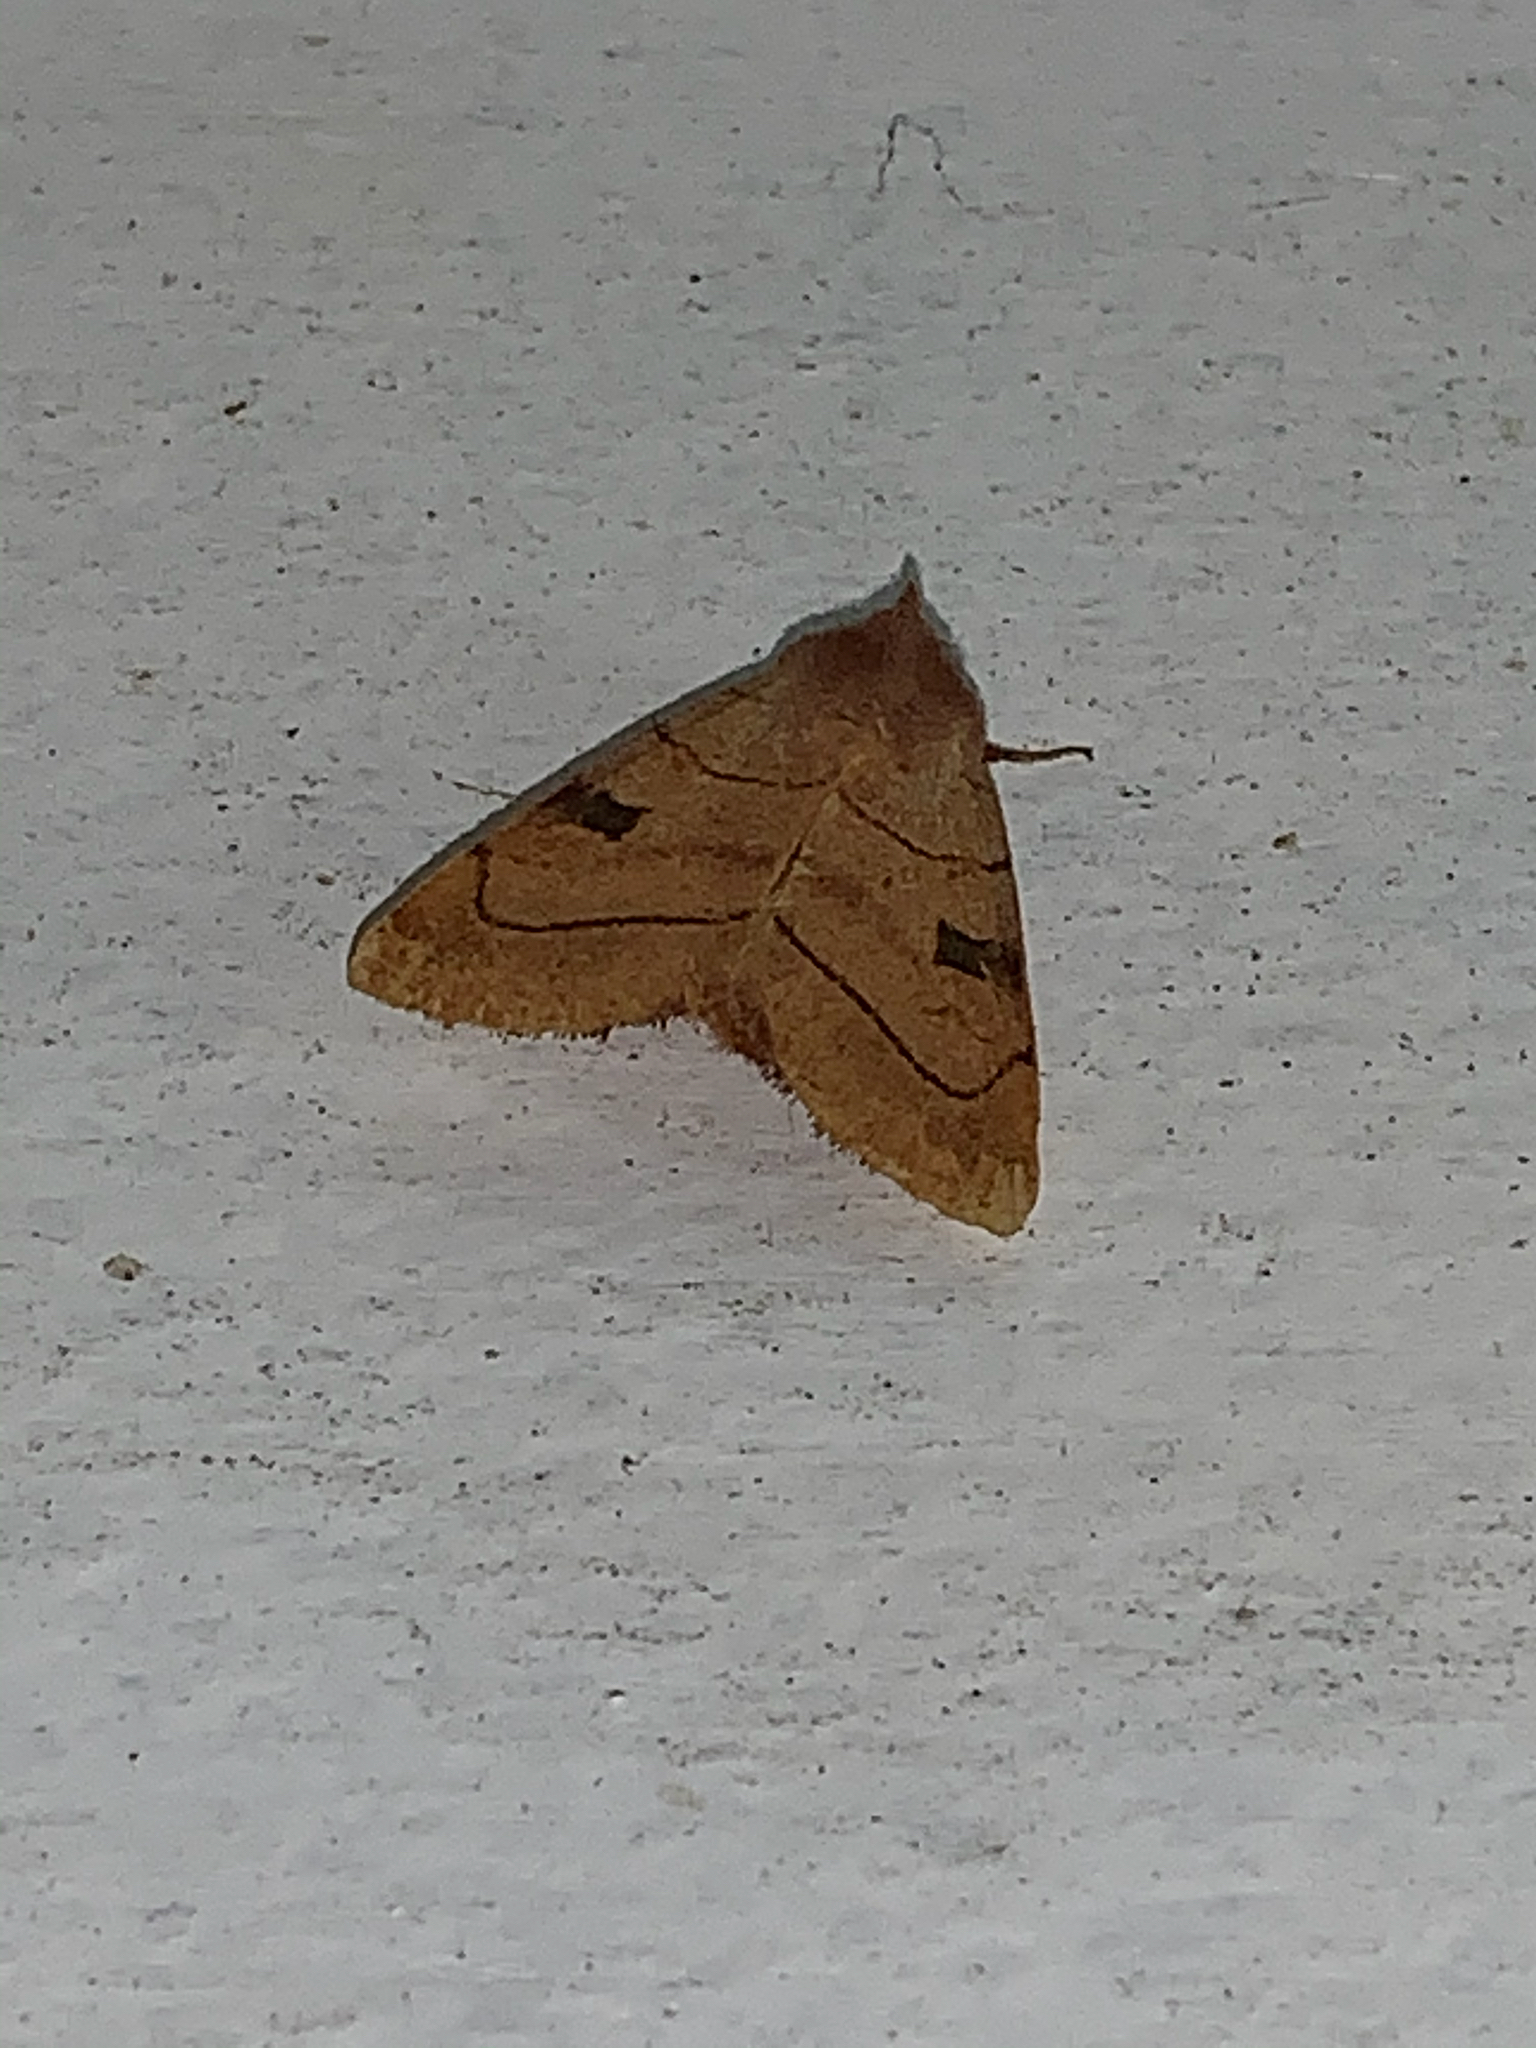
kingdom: Animalia
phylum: Arthropoda
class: Insecta
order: Lepidoptera
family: Noctuidae
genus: Choephora
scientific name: Choephora fungorum
